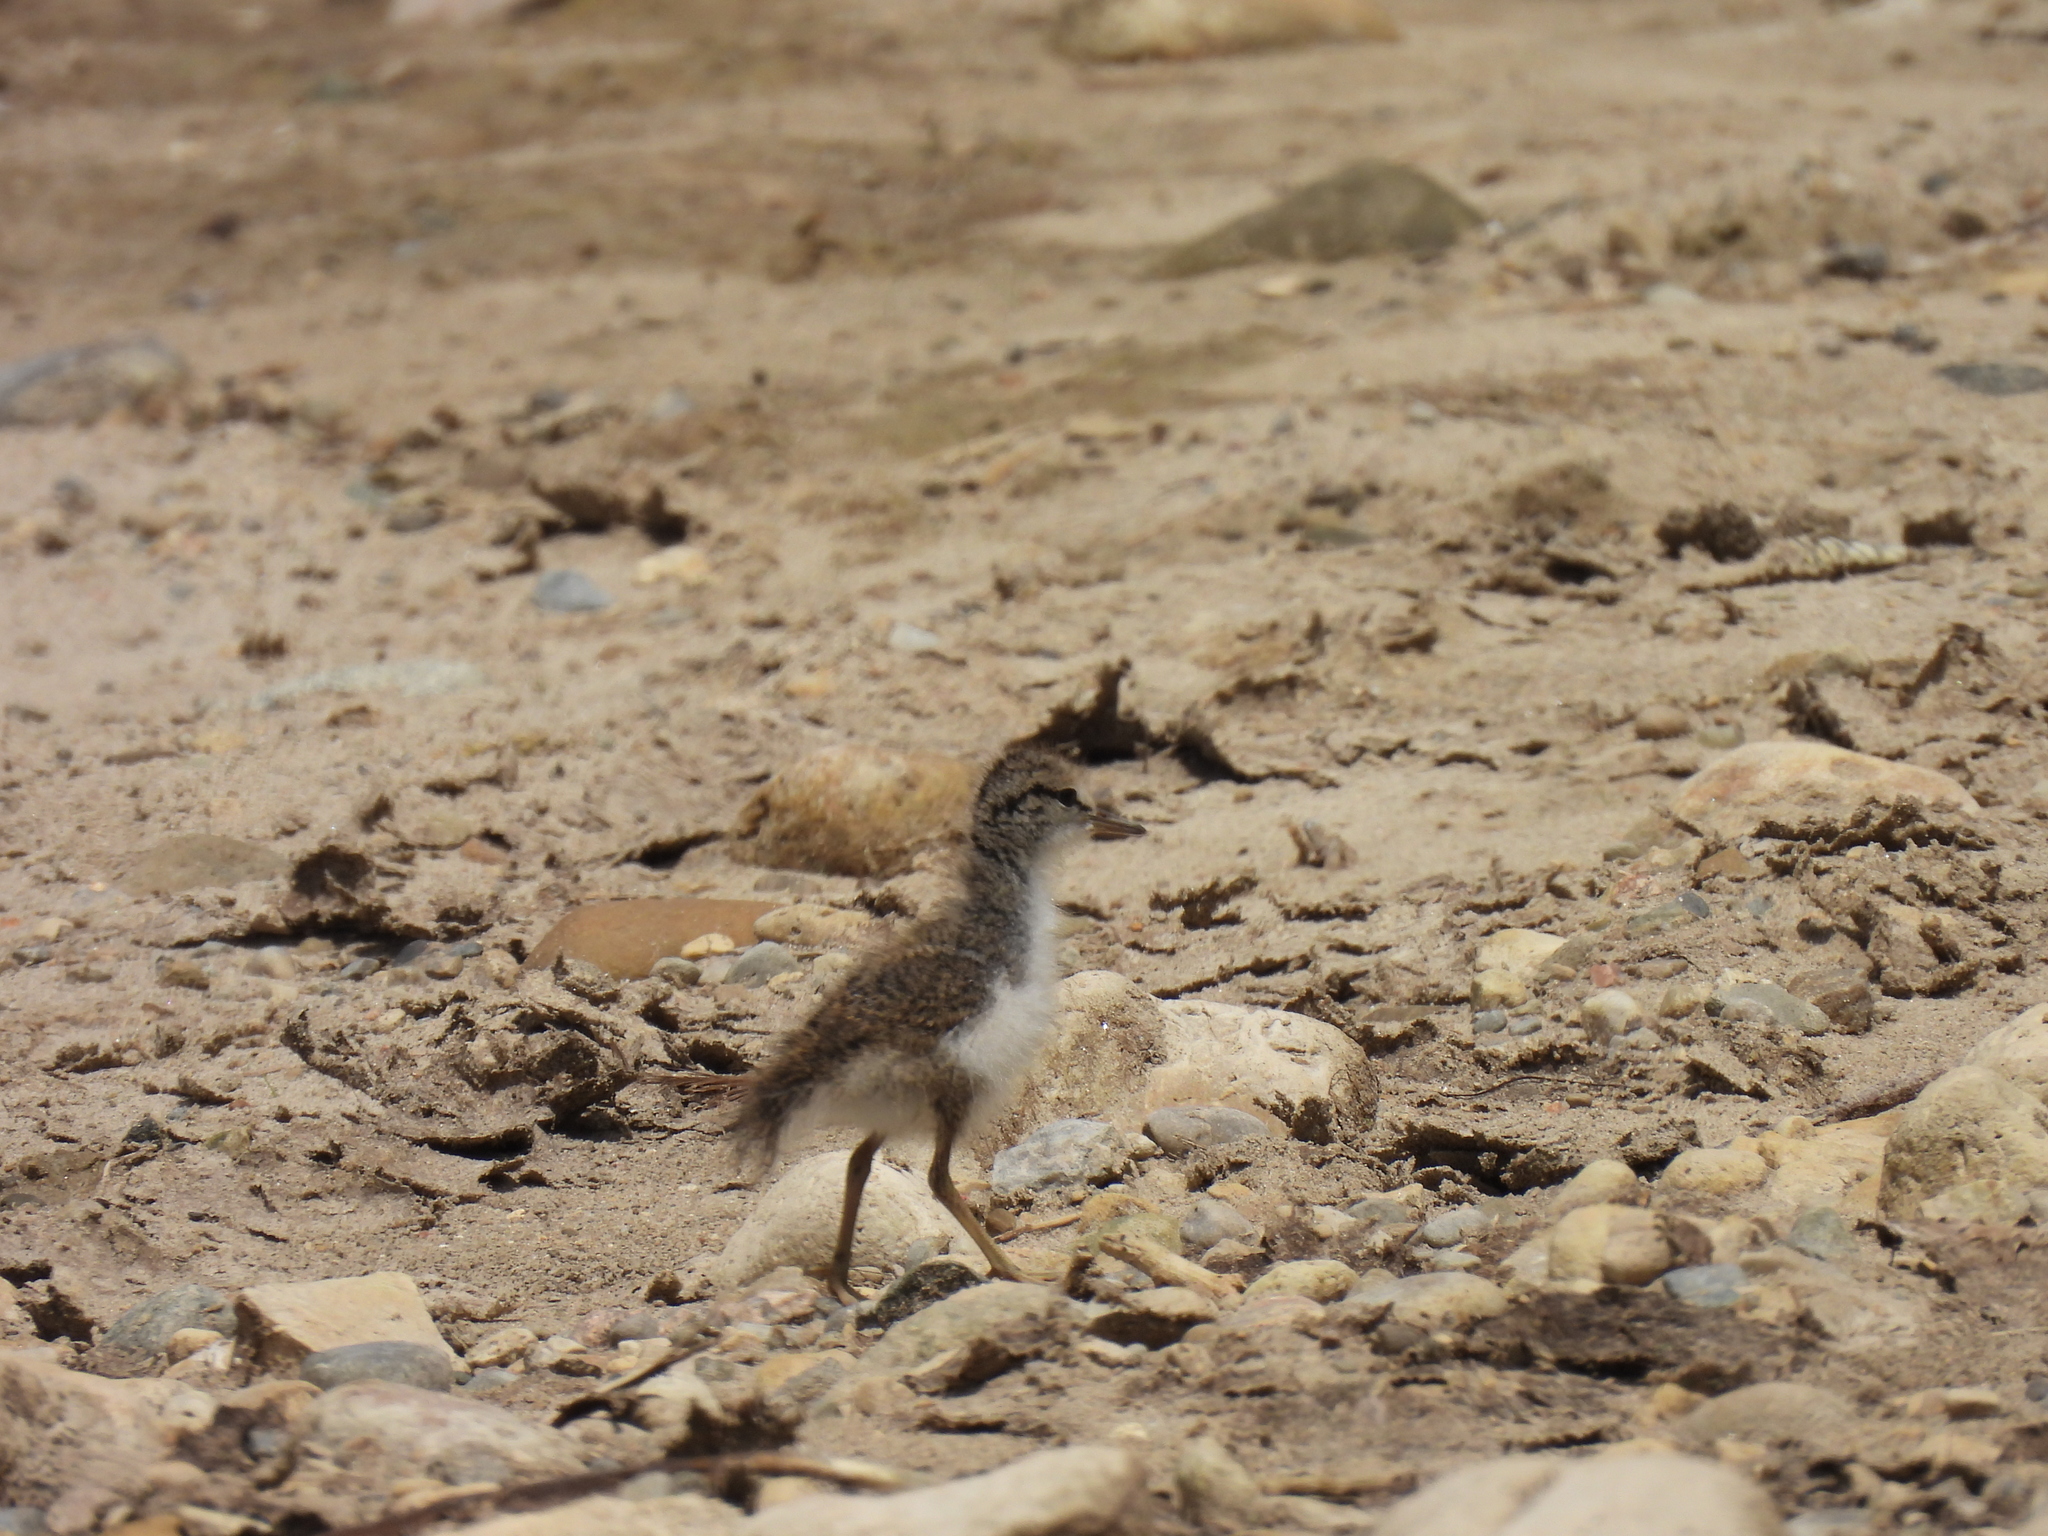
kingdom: Animalia
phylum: Chordata
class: Aves
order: Charadriiformes
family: Scolopacidae
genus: Actitis
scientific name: Actitis macularius
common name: Spotted sandpiper
